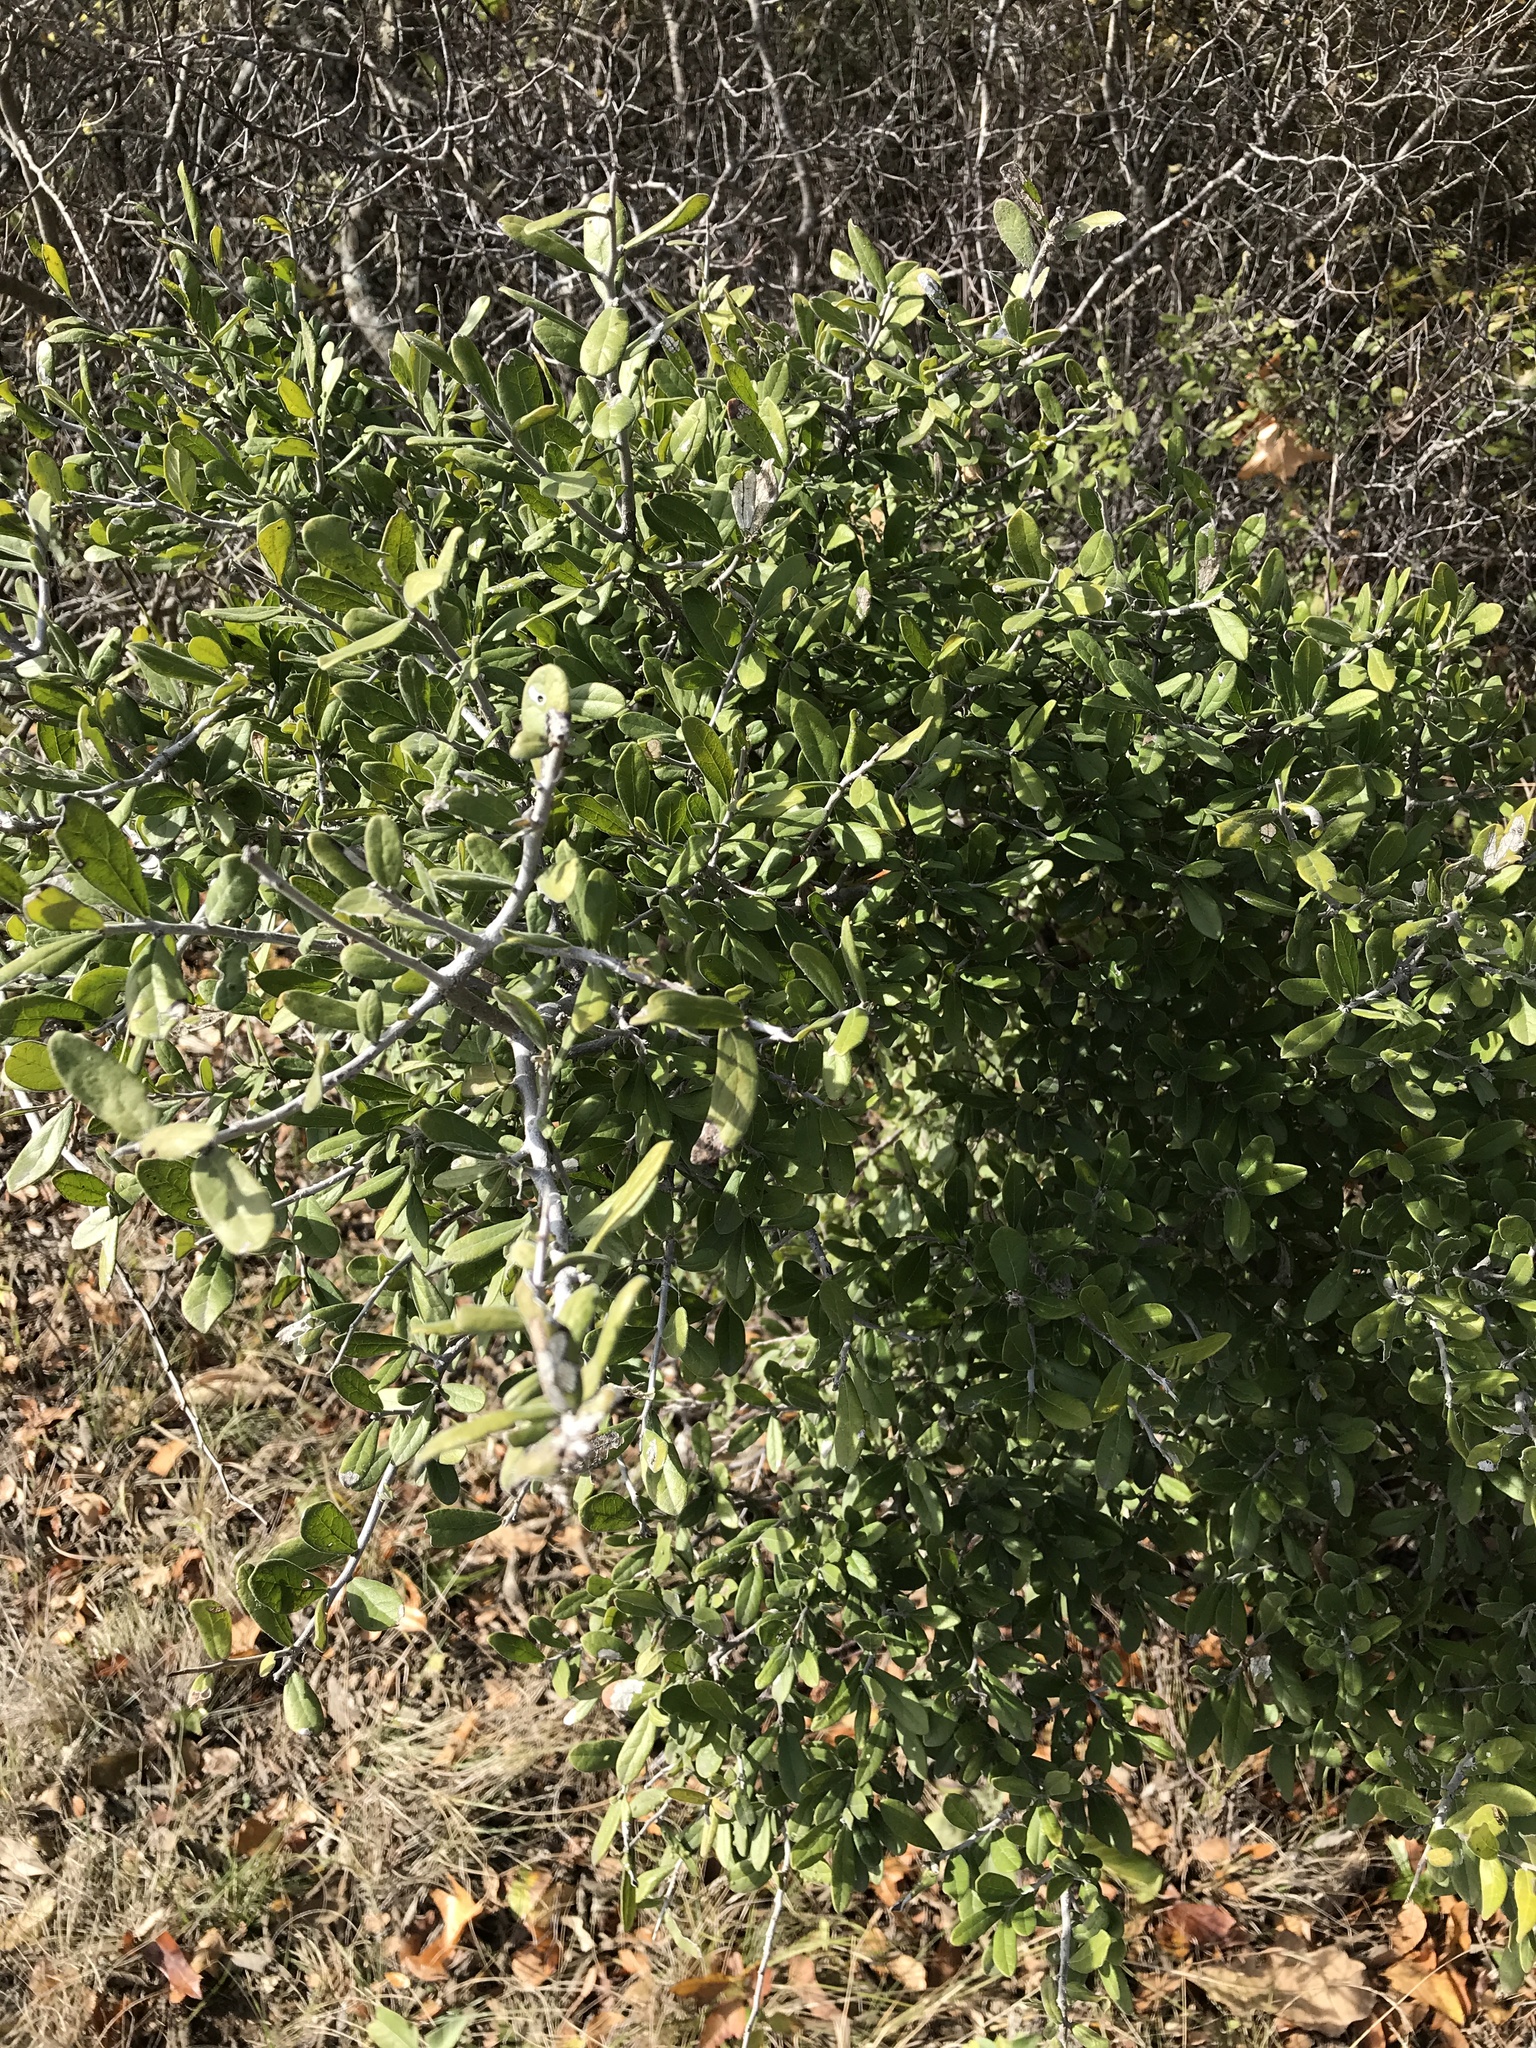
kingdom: Plantae
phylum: Tracheophyta
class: Magnoliopsida
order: Ericales
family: Ebenaceae
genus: Diospyros
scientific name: Diospyros texana
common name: Texas persimmon
